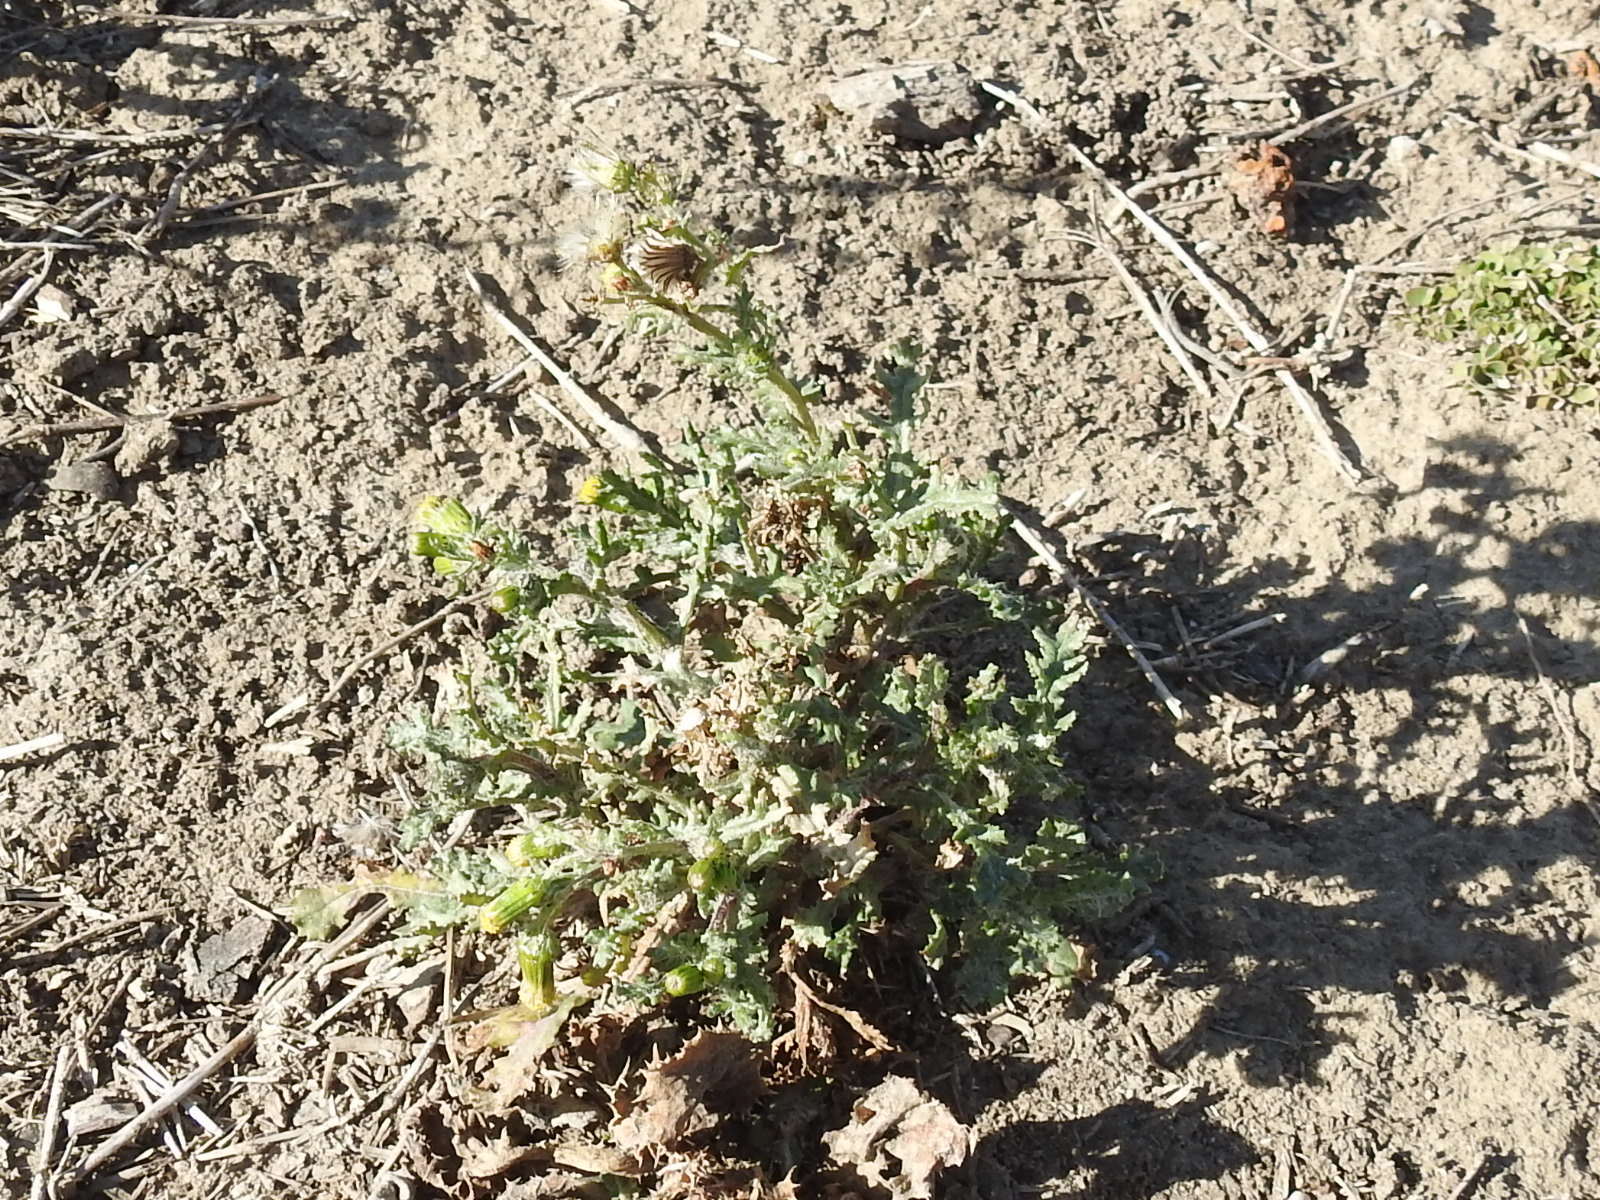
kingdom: Plantae
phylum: Tracheophyta
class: Magnoliopsida
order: Asterales
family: Asteraceae
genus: Senecio
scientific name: Senecio vulgaris
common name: Old-man-in-the-spring
